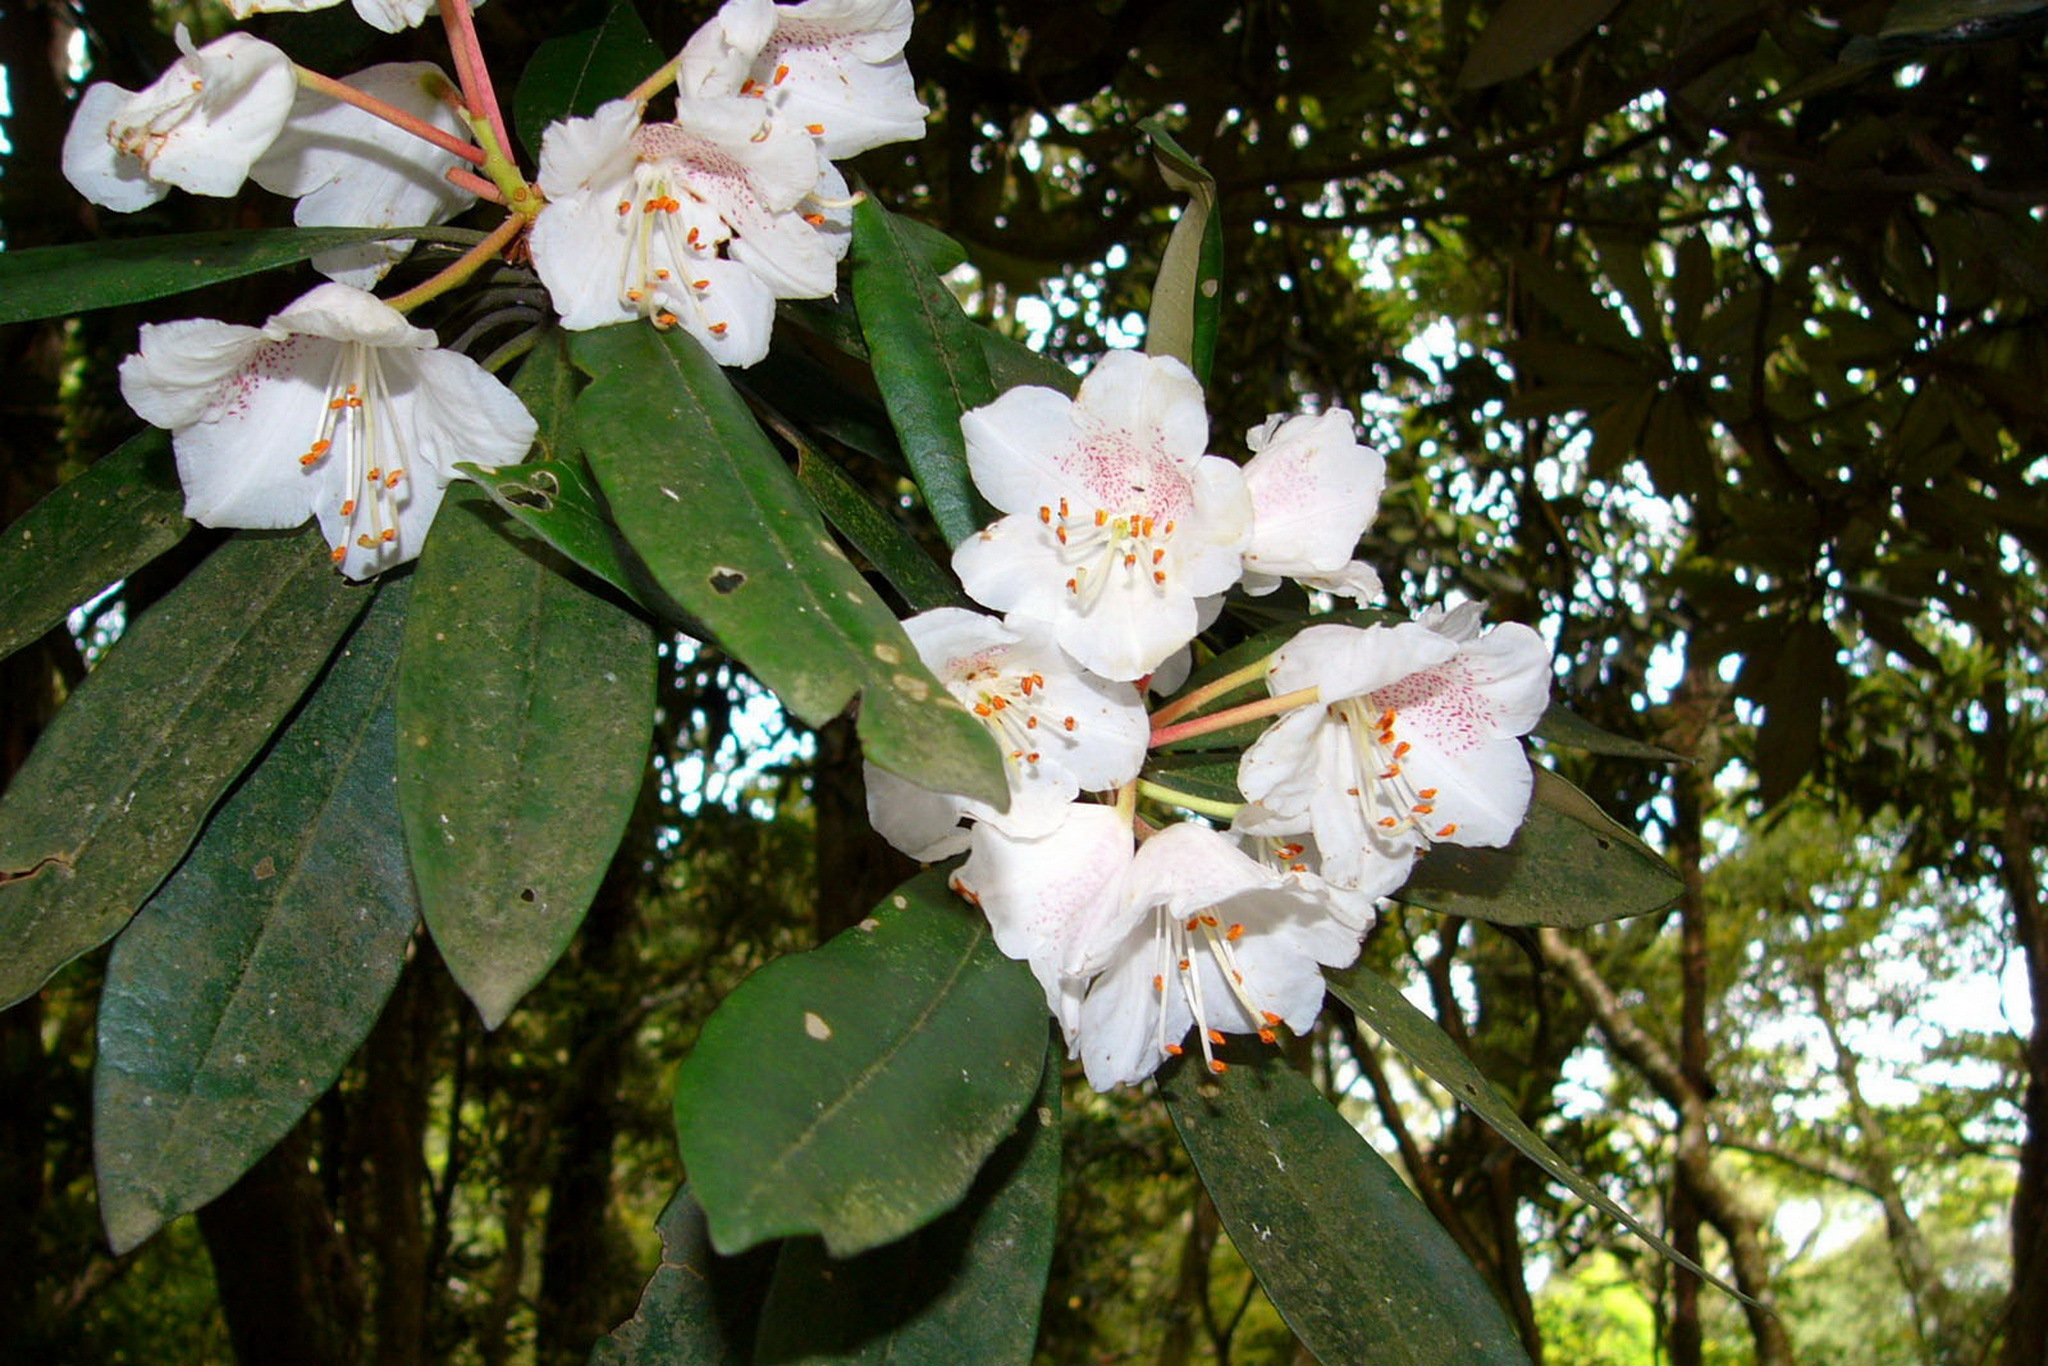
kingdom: Plantae
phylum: Tracheophyta
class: Magnoliopsida
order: Ericales
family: Ericaceae
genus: Rhododendron
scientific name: Rhododendron formosanum
